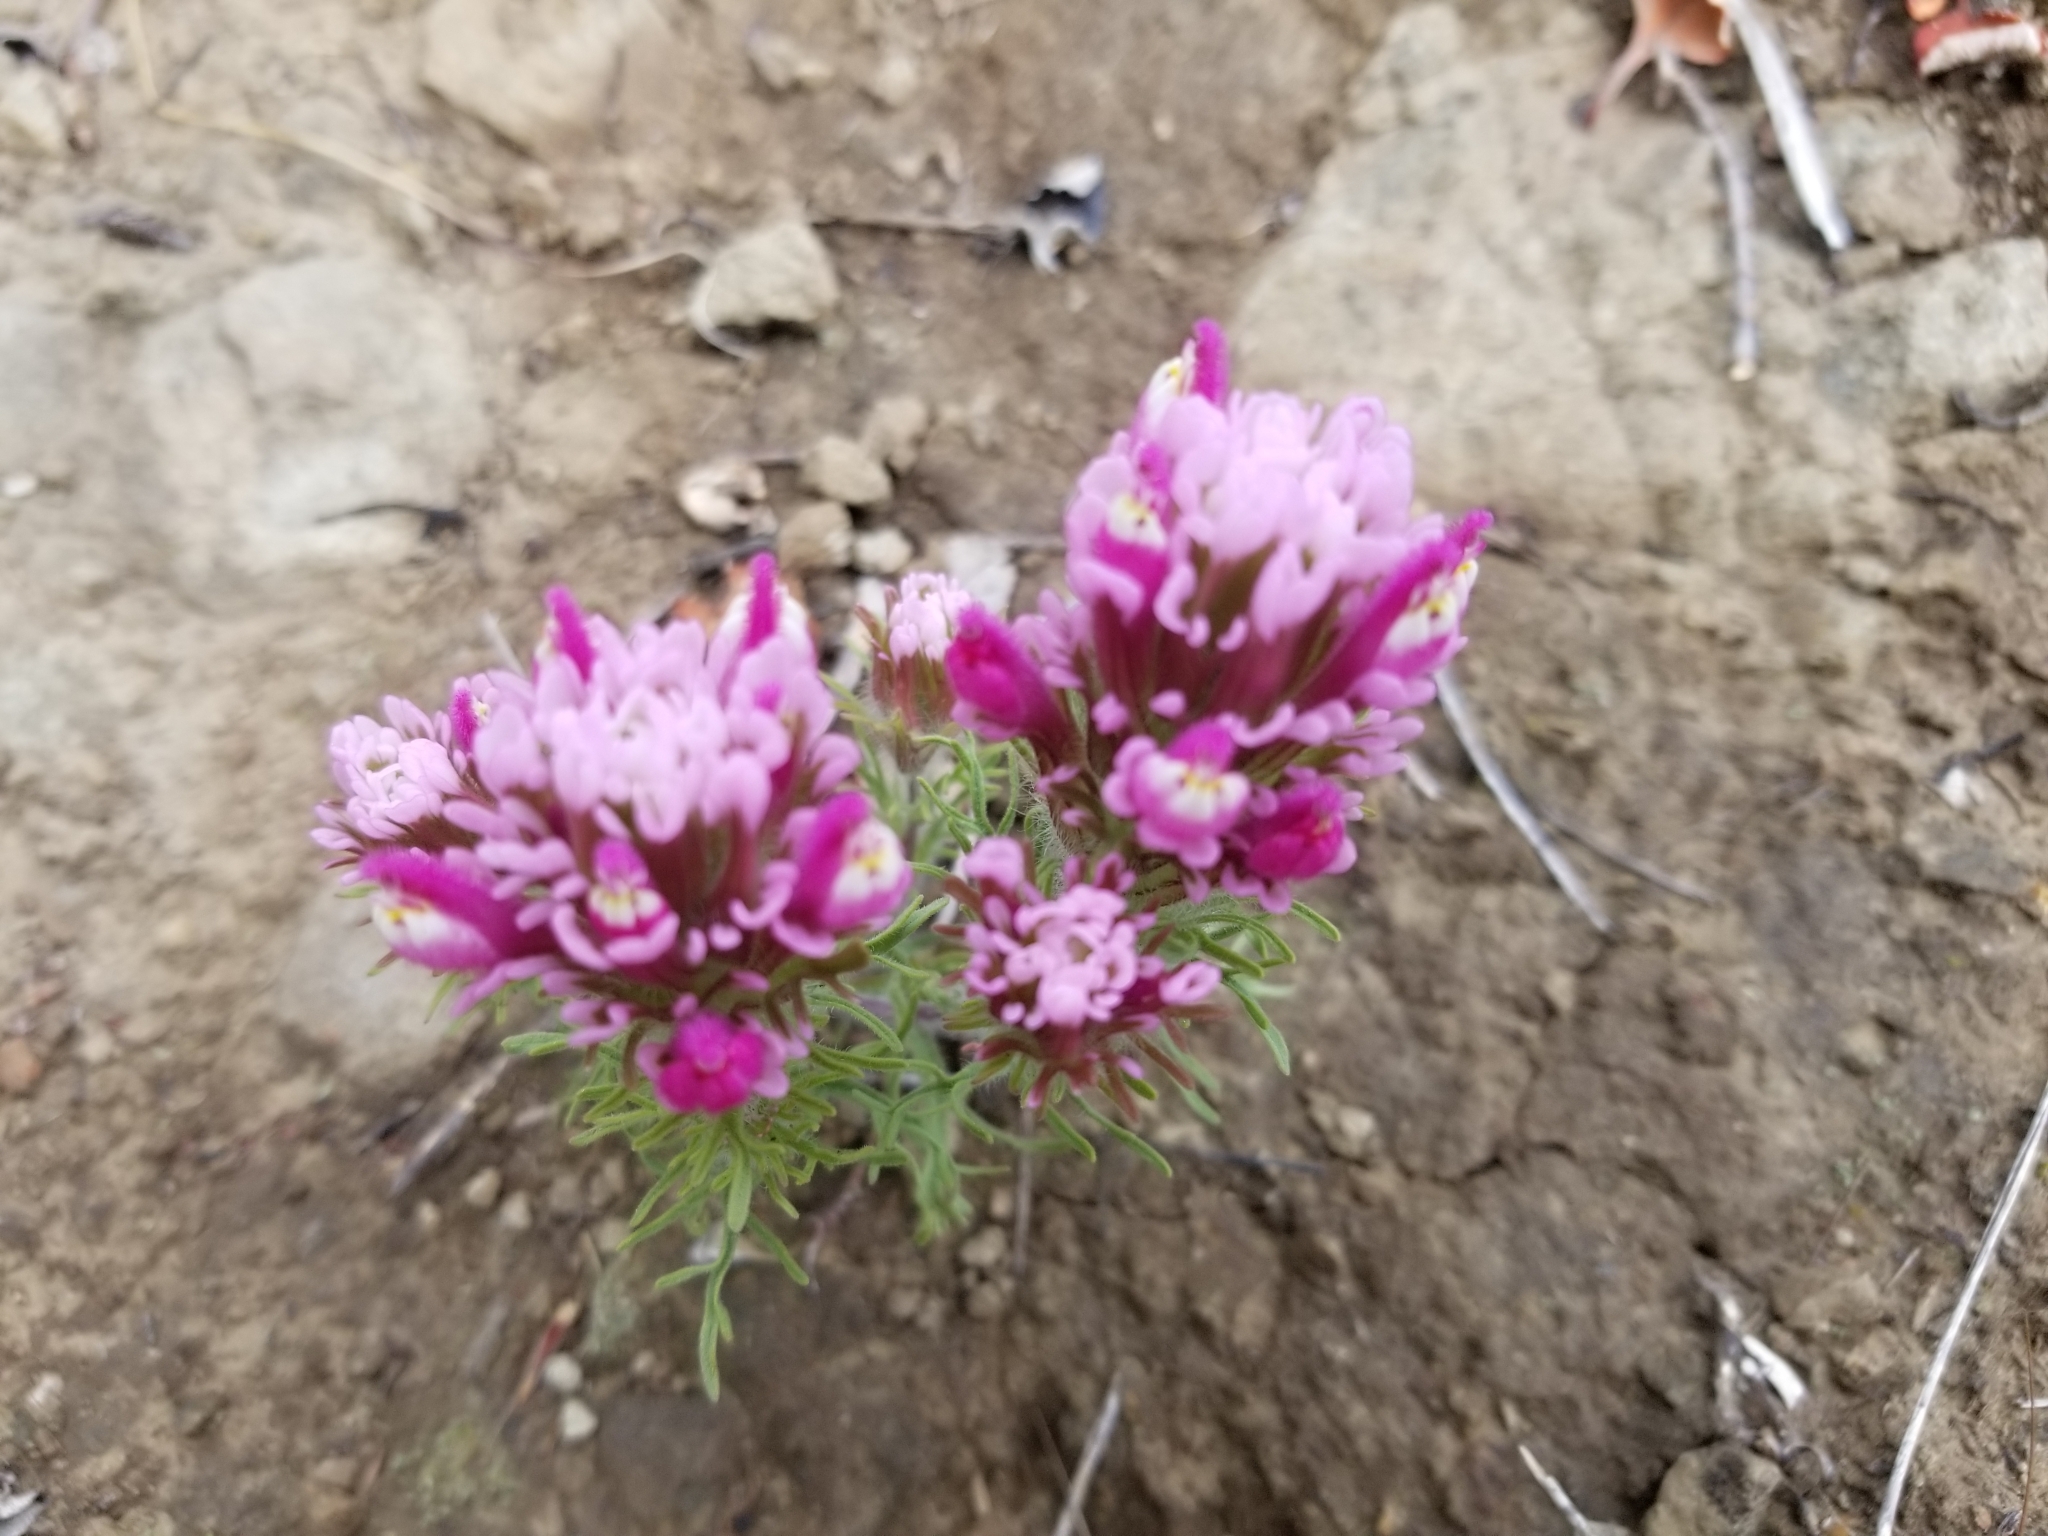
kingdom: Plantae
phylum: Tracheophyta
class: Magnoliopsida
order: Lamiales
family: Orobanchaceae
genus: Castilleja
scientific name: Castilleja exserta
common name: Purple owl-clover
